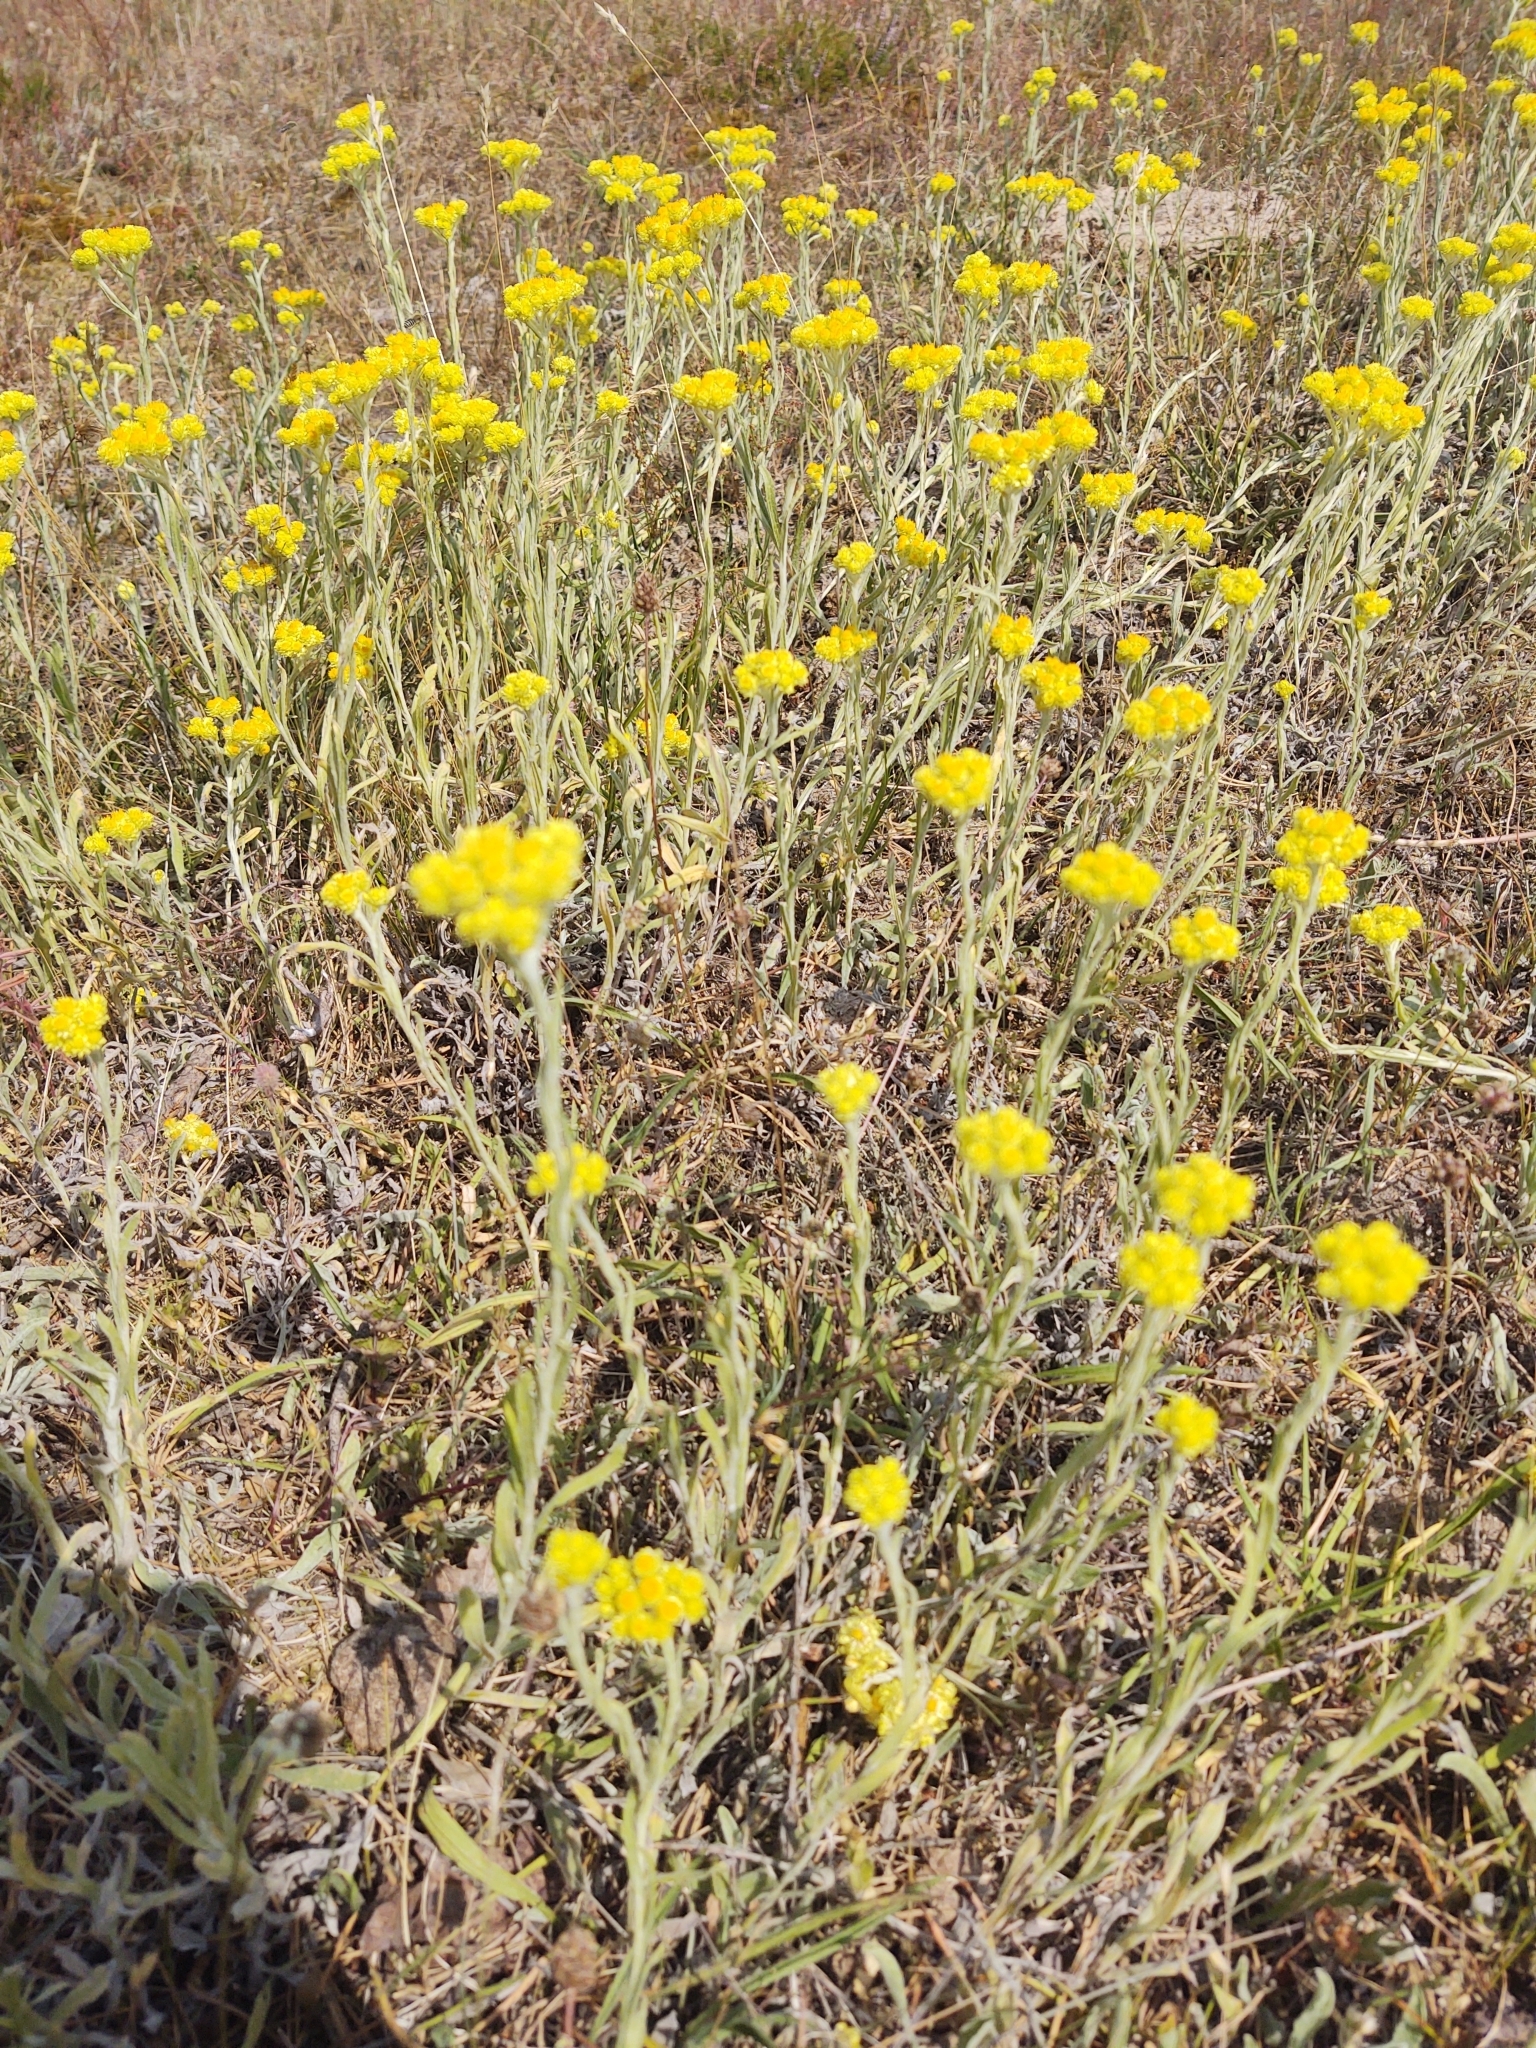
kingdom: Plantae
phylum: Tracheophyta
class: Magnoliopsida
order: Asterales
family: Asteraceae
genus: Helichrysum
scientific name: Helichrysum arenarium
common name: Strawflower
